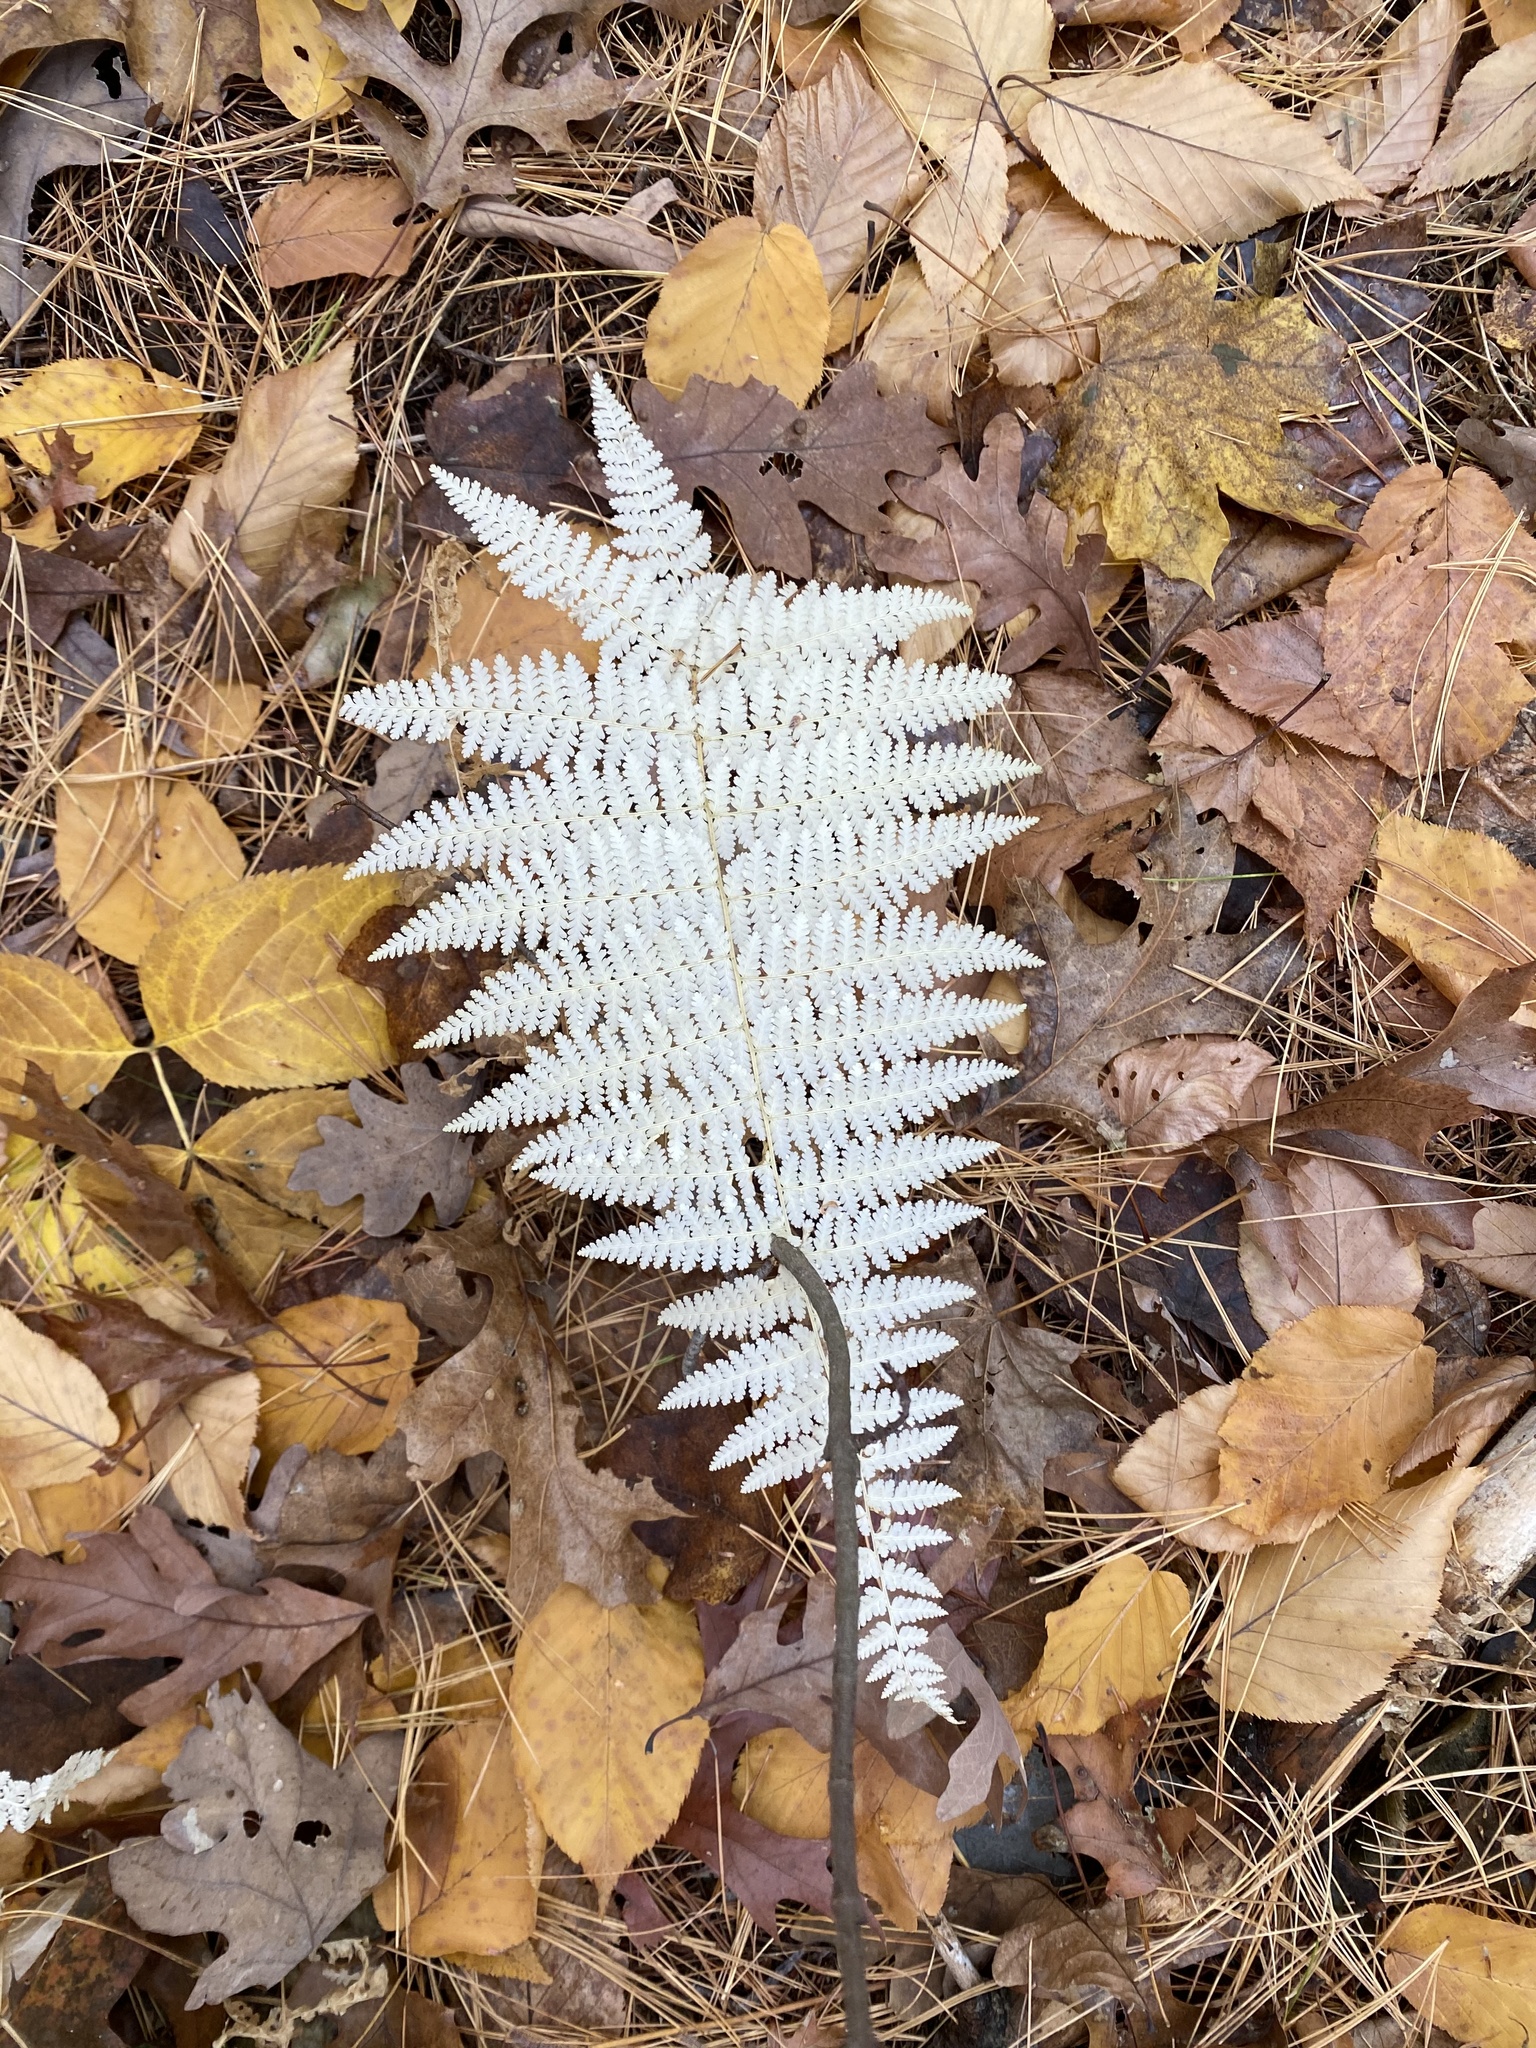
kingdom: Plantae
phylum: Tracheophyta
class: Polypodiopsida
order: Polypodiales
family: Dennstaedtiaceae
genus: Sitobolium
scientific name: Sitobolium punctilobum
